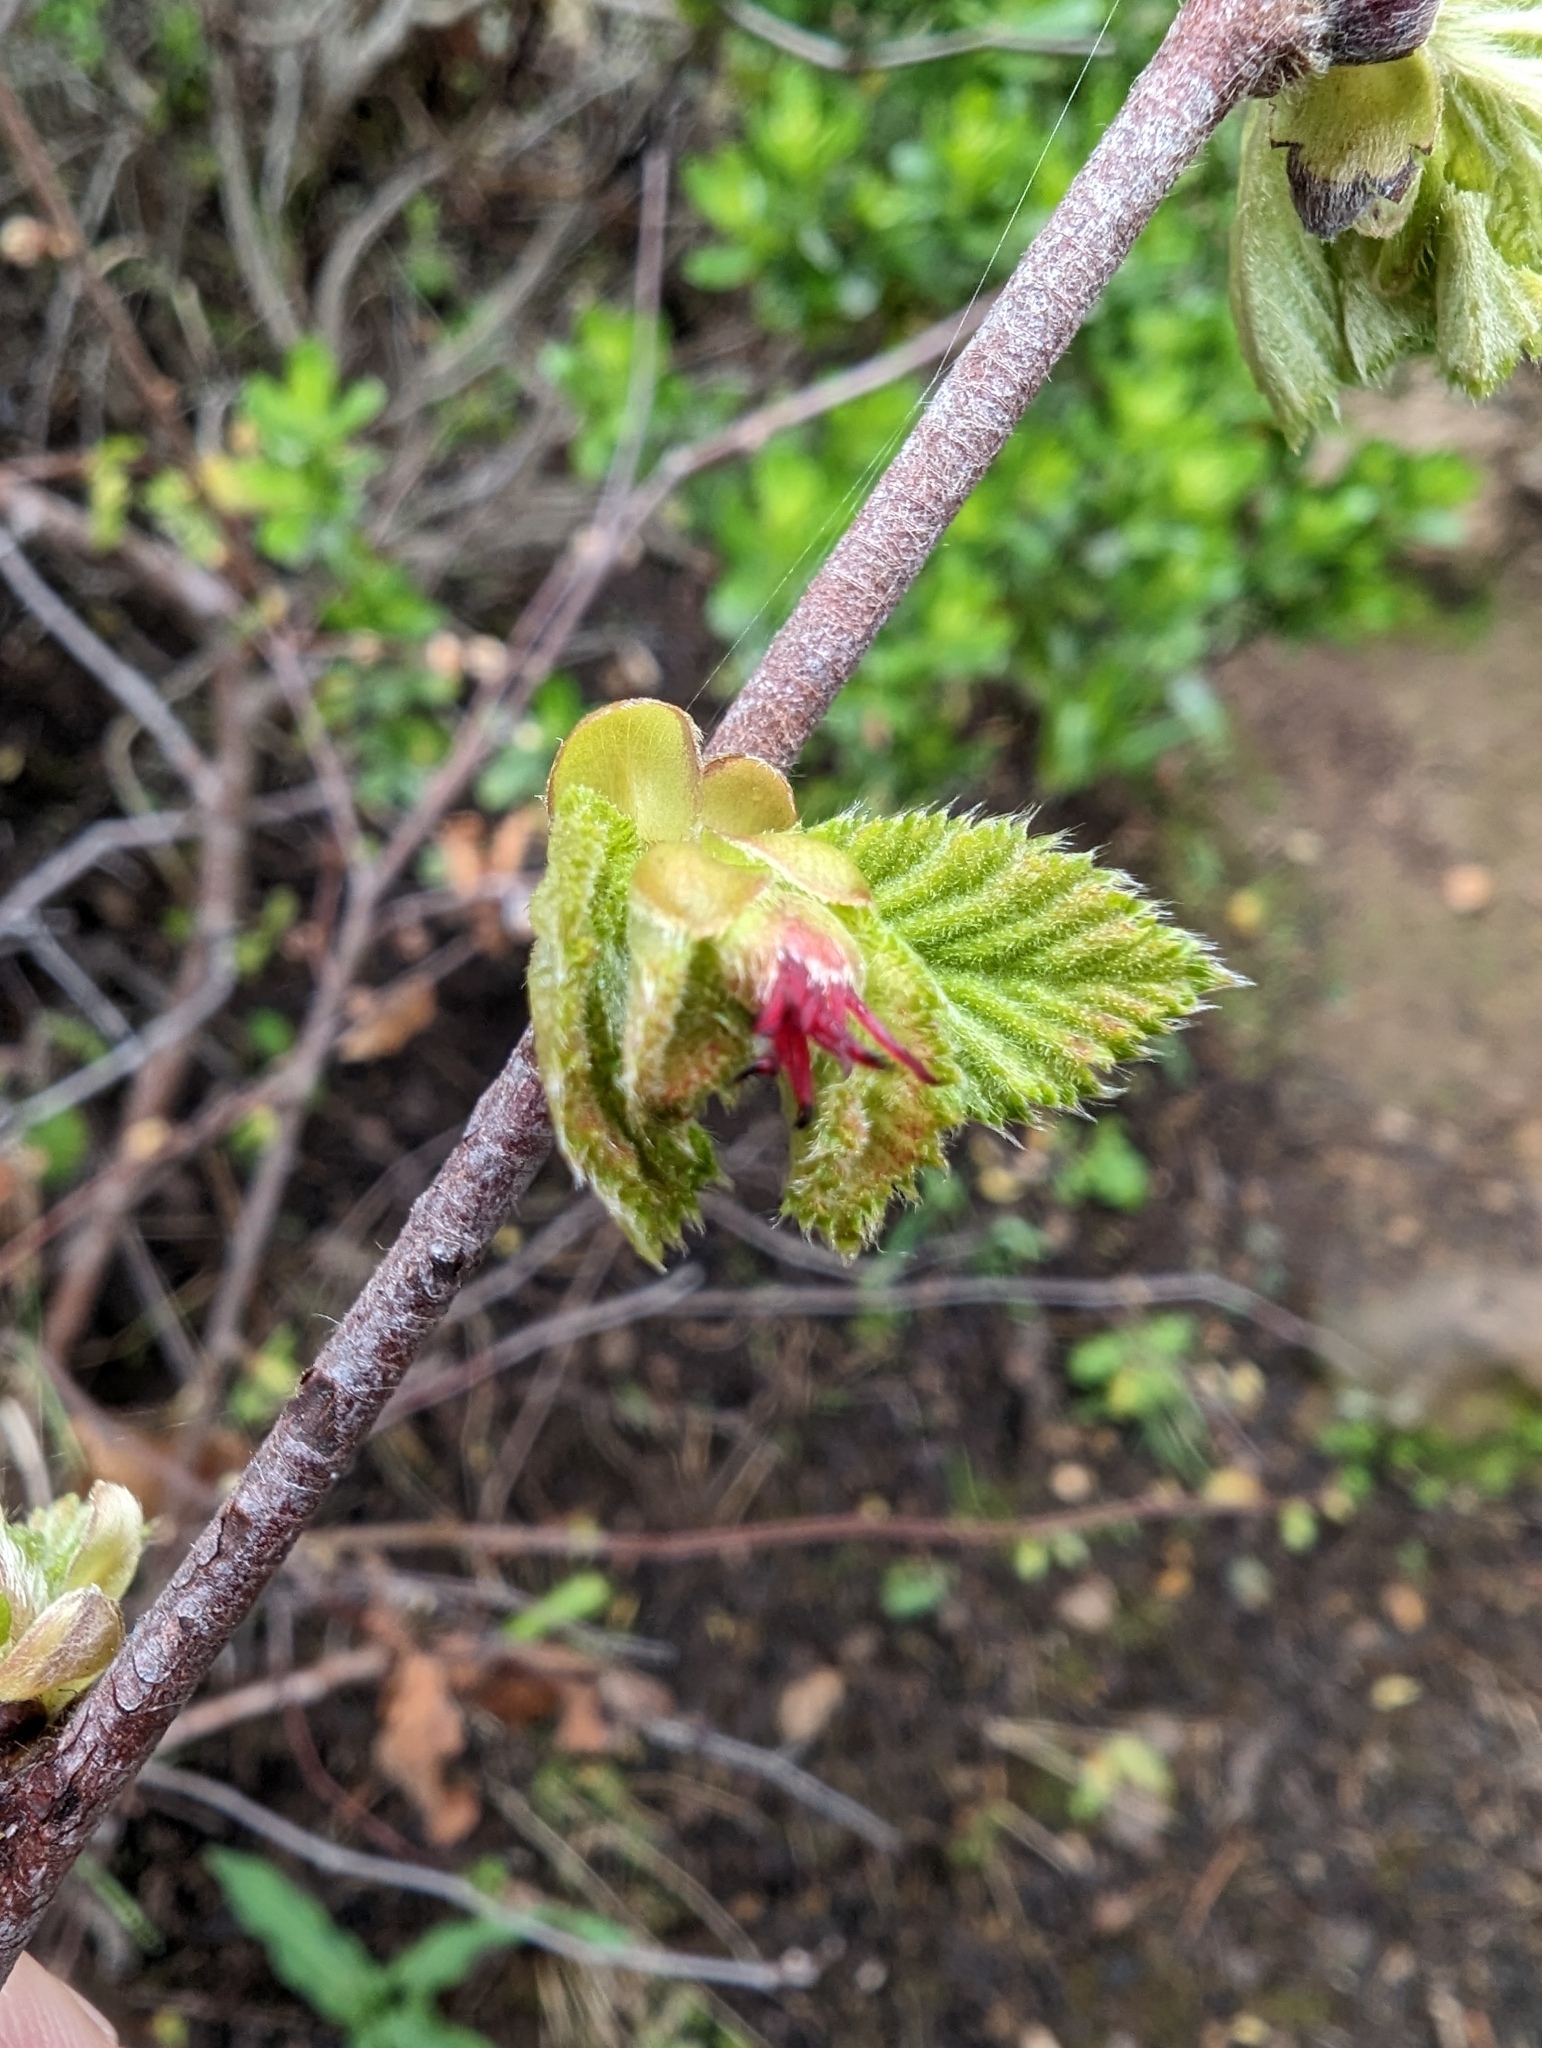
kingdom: Plantae
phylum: Tracheophyta
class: Magnoliopsida
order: Fagales
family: Betulaceae
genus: Corylus
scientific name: Corylus cornuta
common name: Beaked hazel
